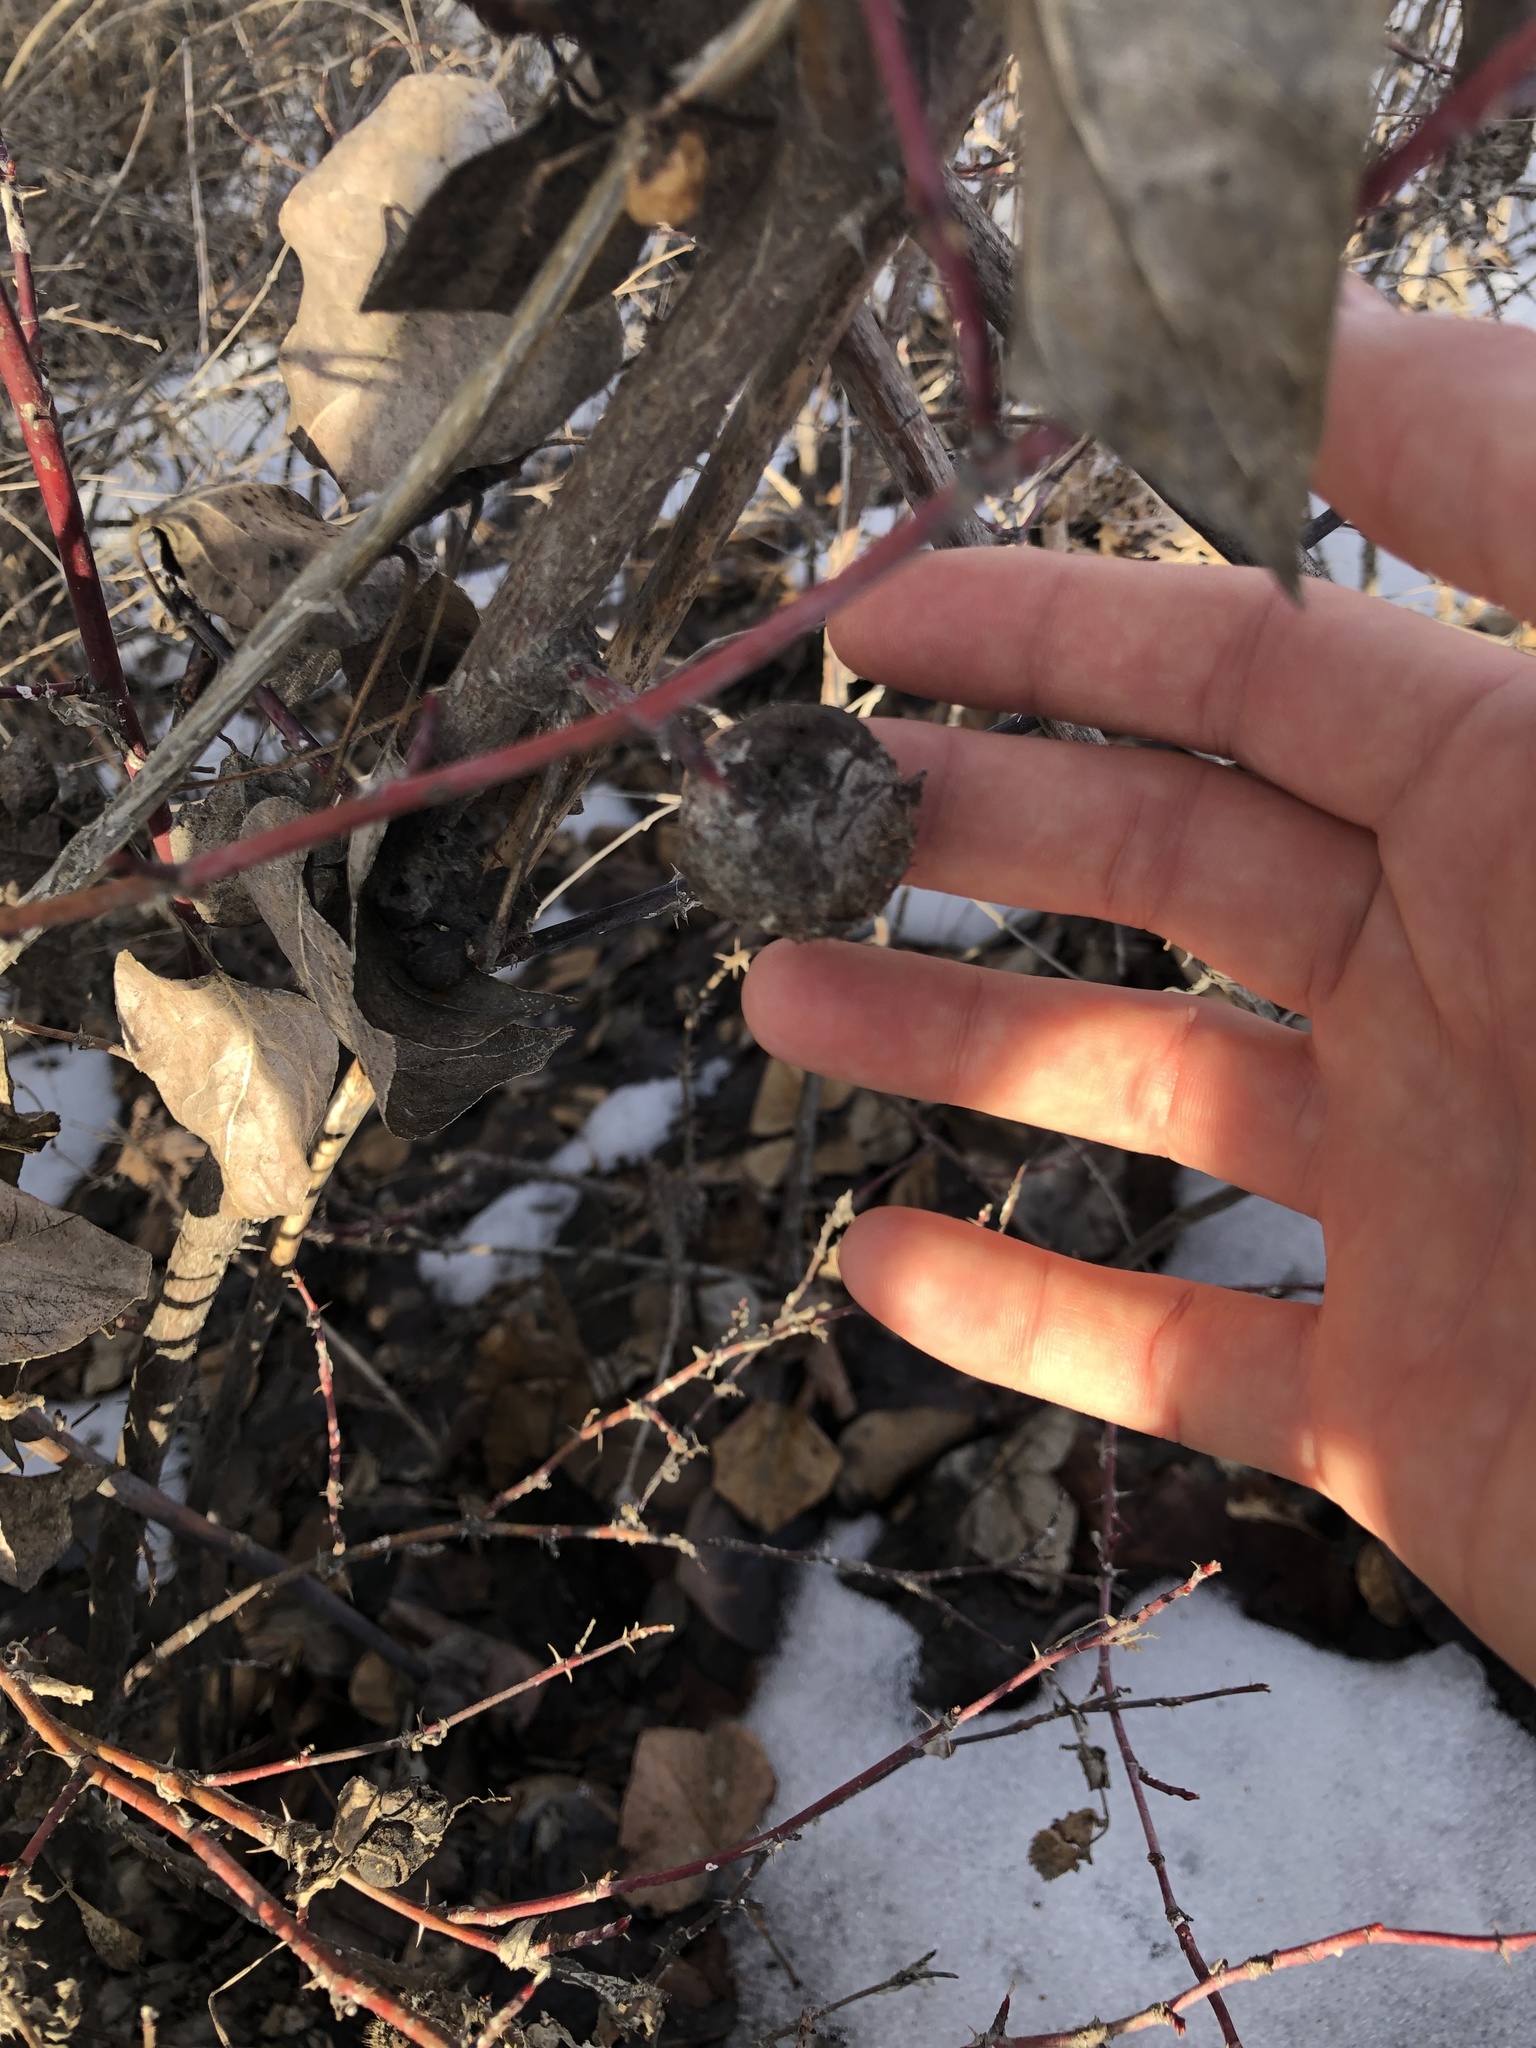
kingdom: Animalia
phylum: Arthropoda
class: Insecta
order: Hymenoptera
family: Cynipidae
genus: Diplolepis
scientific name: Diplolepis spinosa
